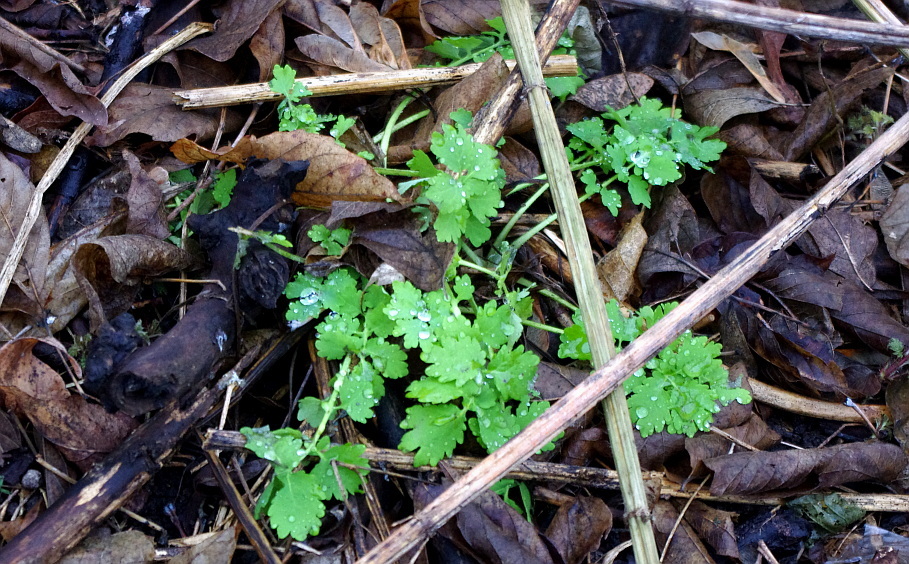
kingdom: Plantae
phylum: Tracheophyta
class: Magnoliopsida
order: Ranunculales
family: Papaveraceae
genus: Chelidonium
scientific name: Chelidonium majus
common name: Greater celandine
